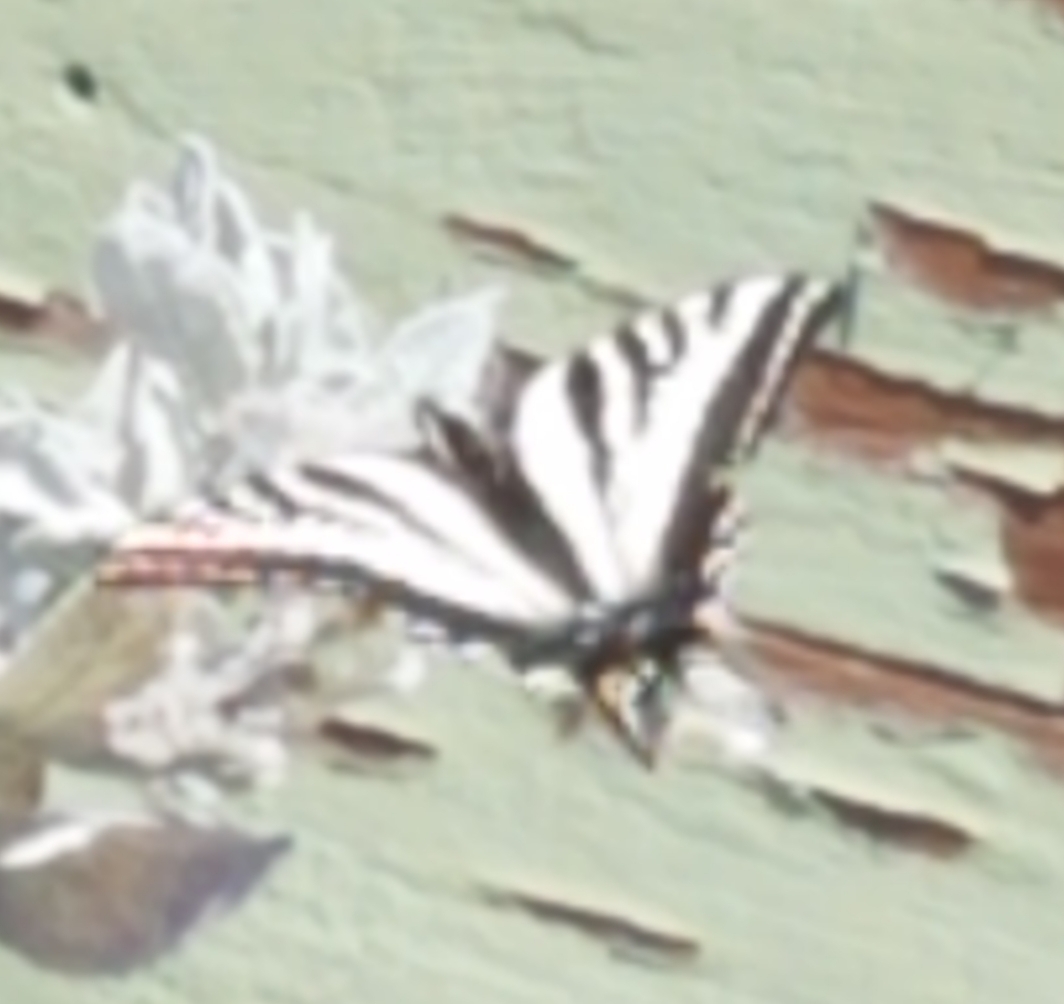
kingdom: Animalia
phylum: Arthropoda
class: Insecta
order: Lepidoptera
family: Papilionidae
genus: Papilio
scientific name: Papilio eurymedon
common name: Pale tiger swallowtail
